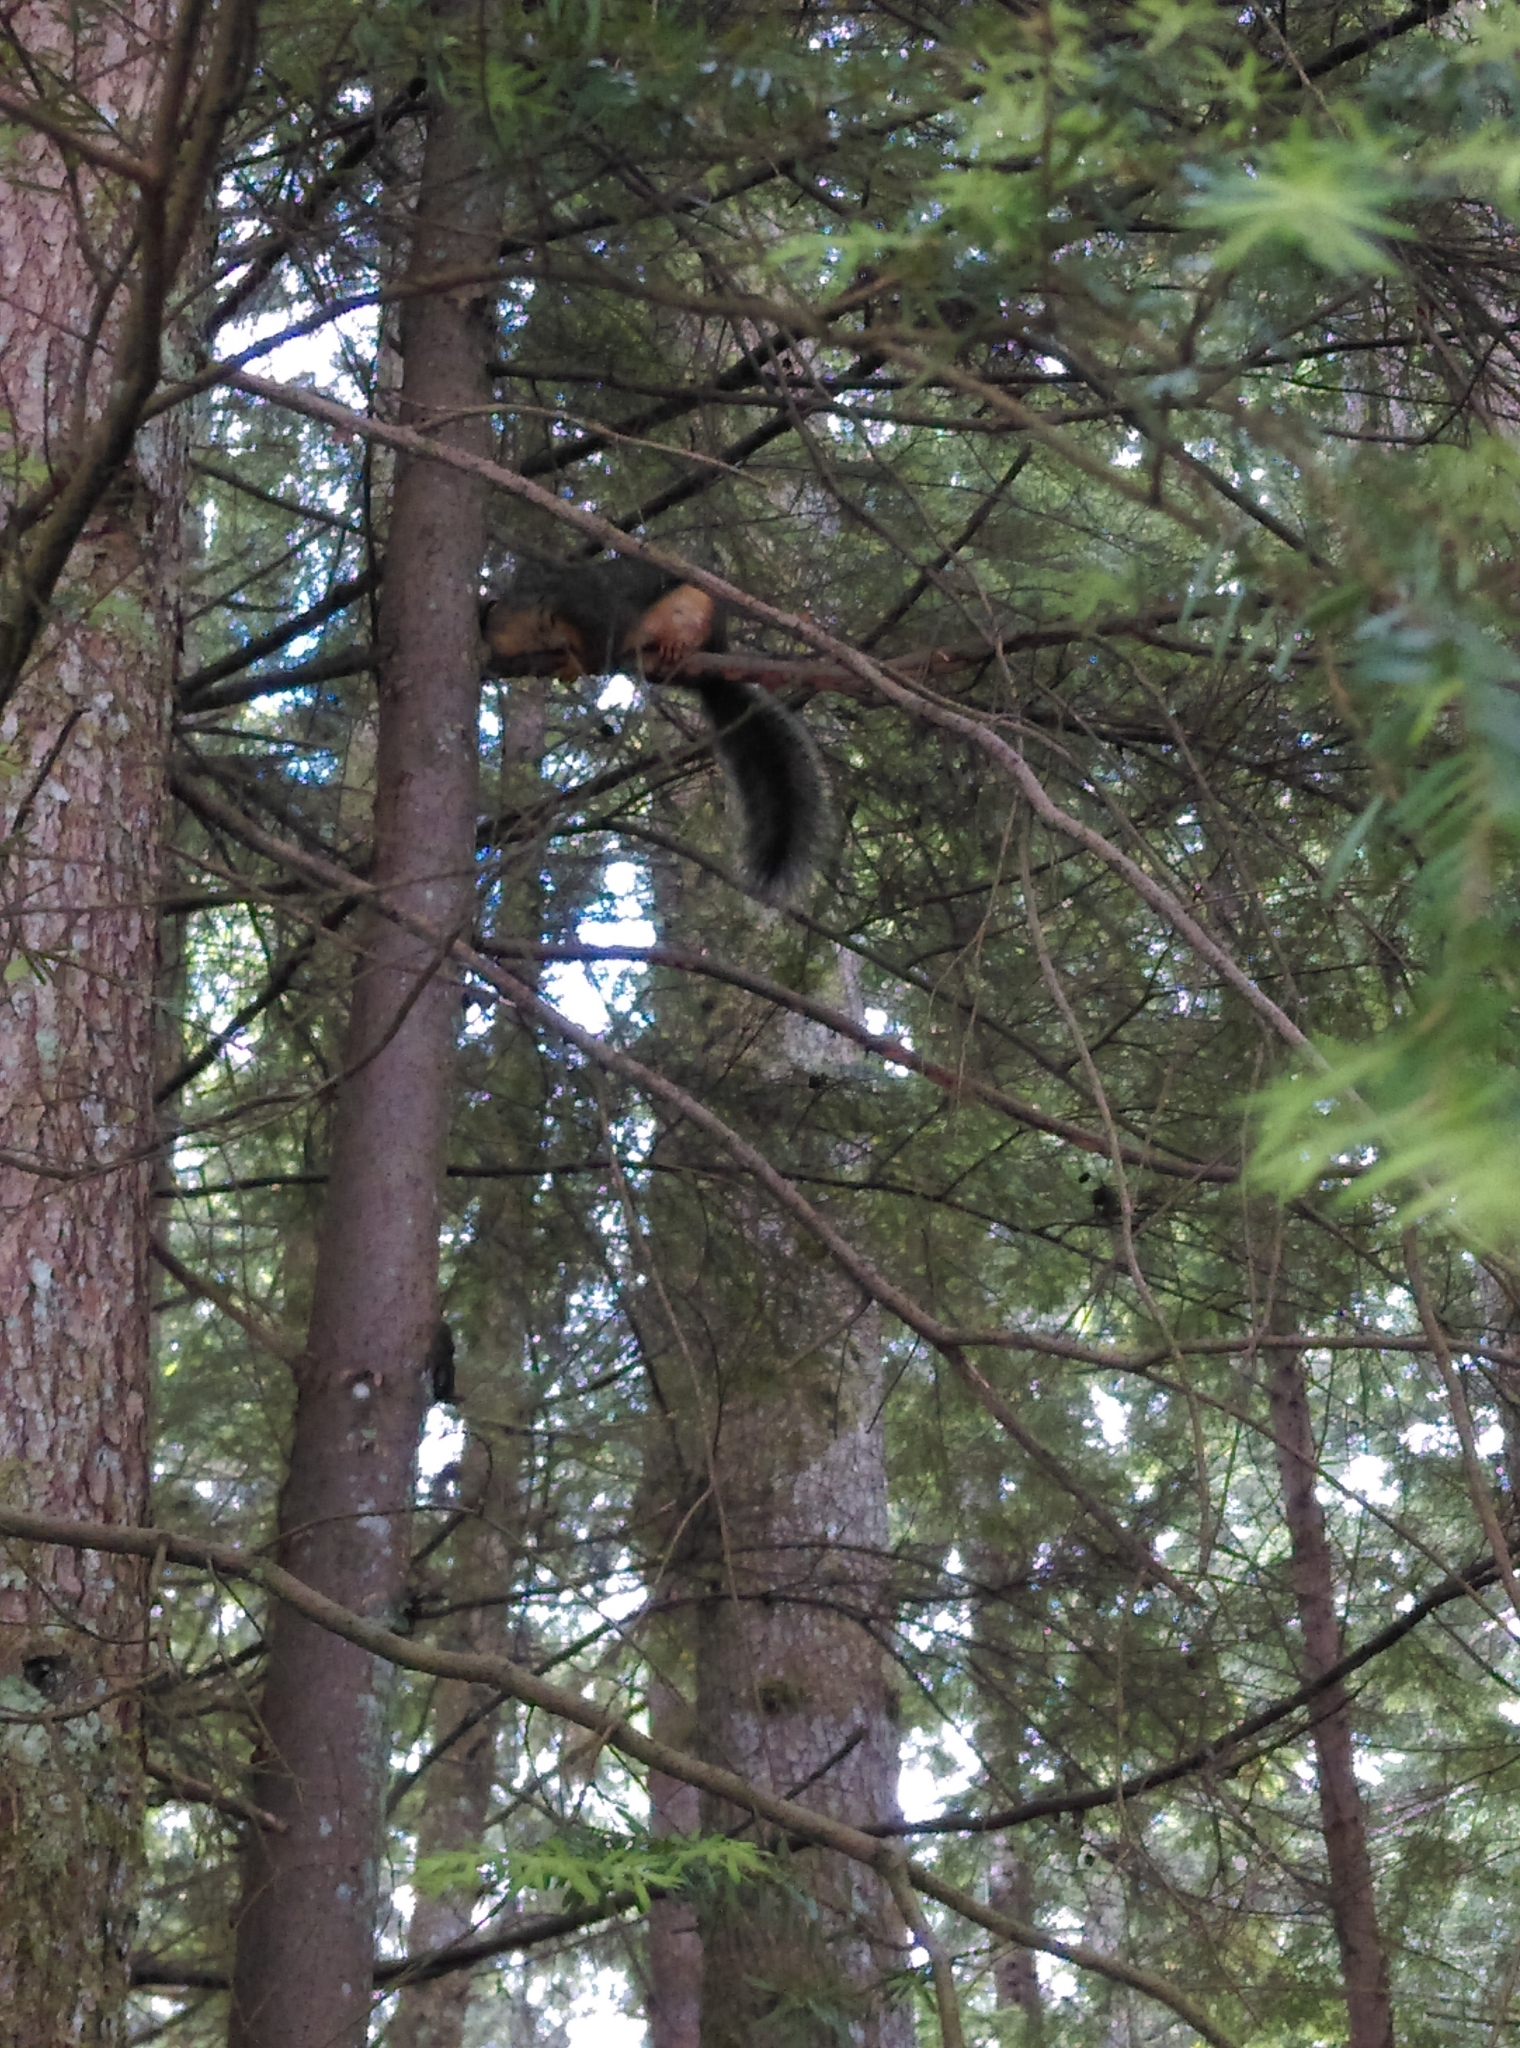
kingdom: Animalia
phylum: Chordata
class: Mammalia
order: Rodentia
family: Sciuridae
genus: Tamiasciurus
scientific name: Tamiasciurus douglasii
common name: Douglas's squirrel
